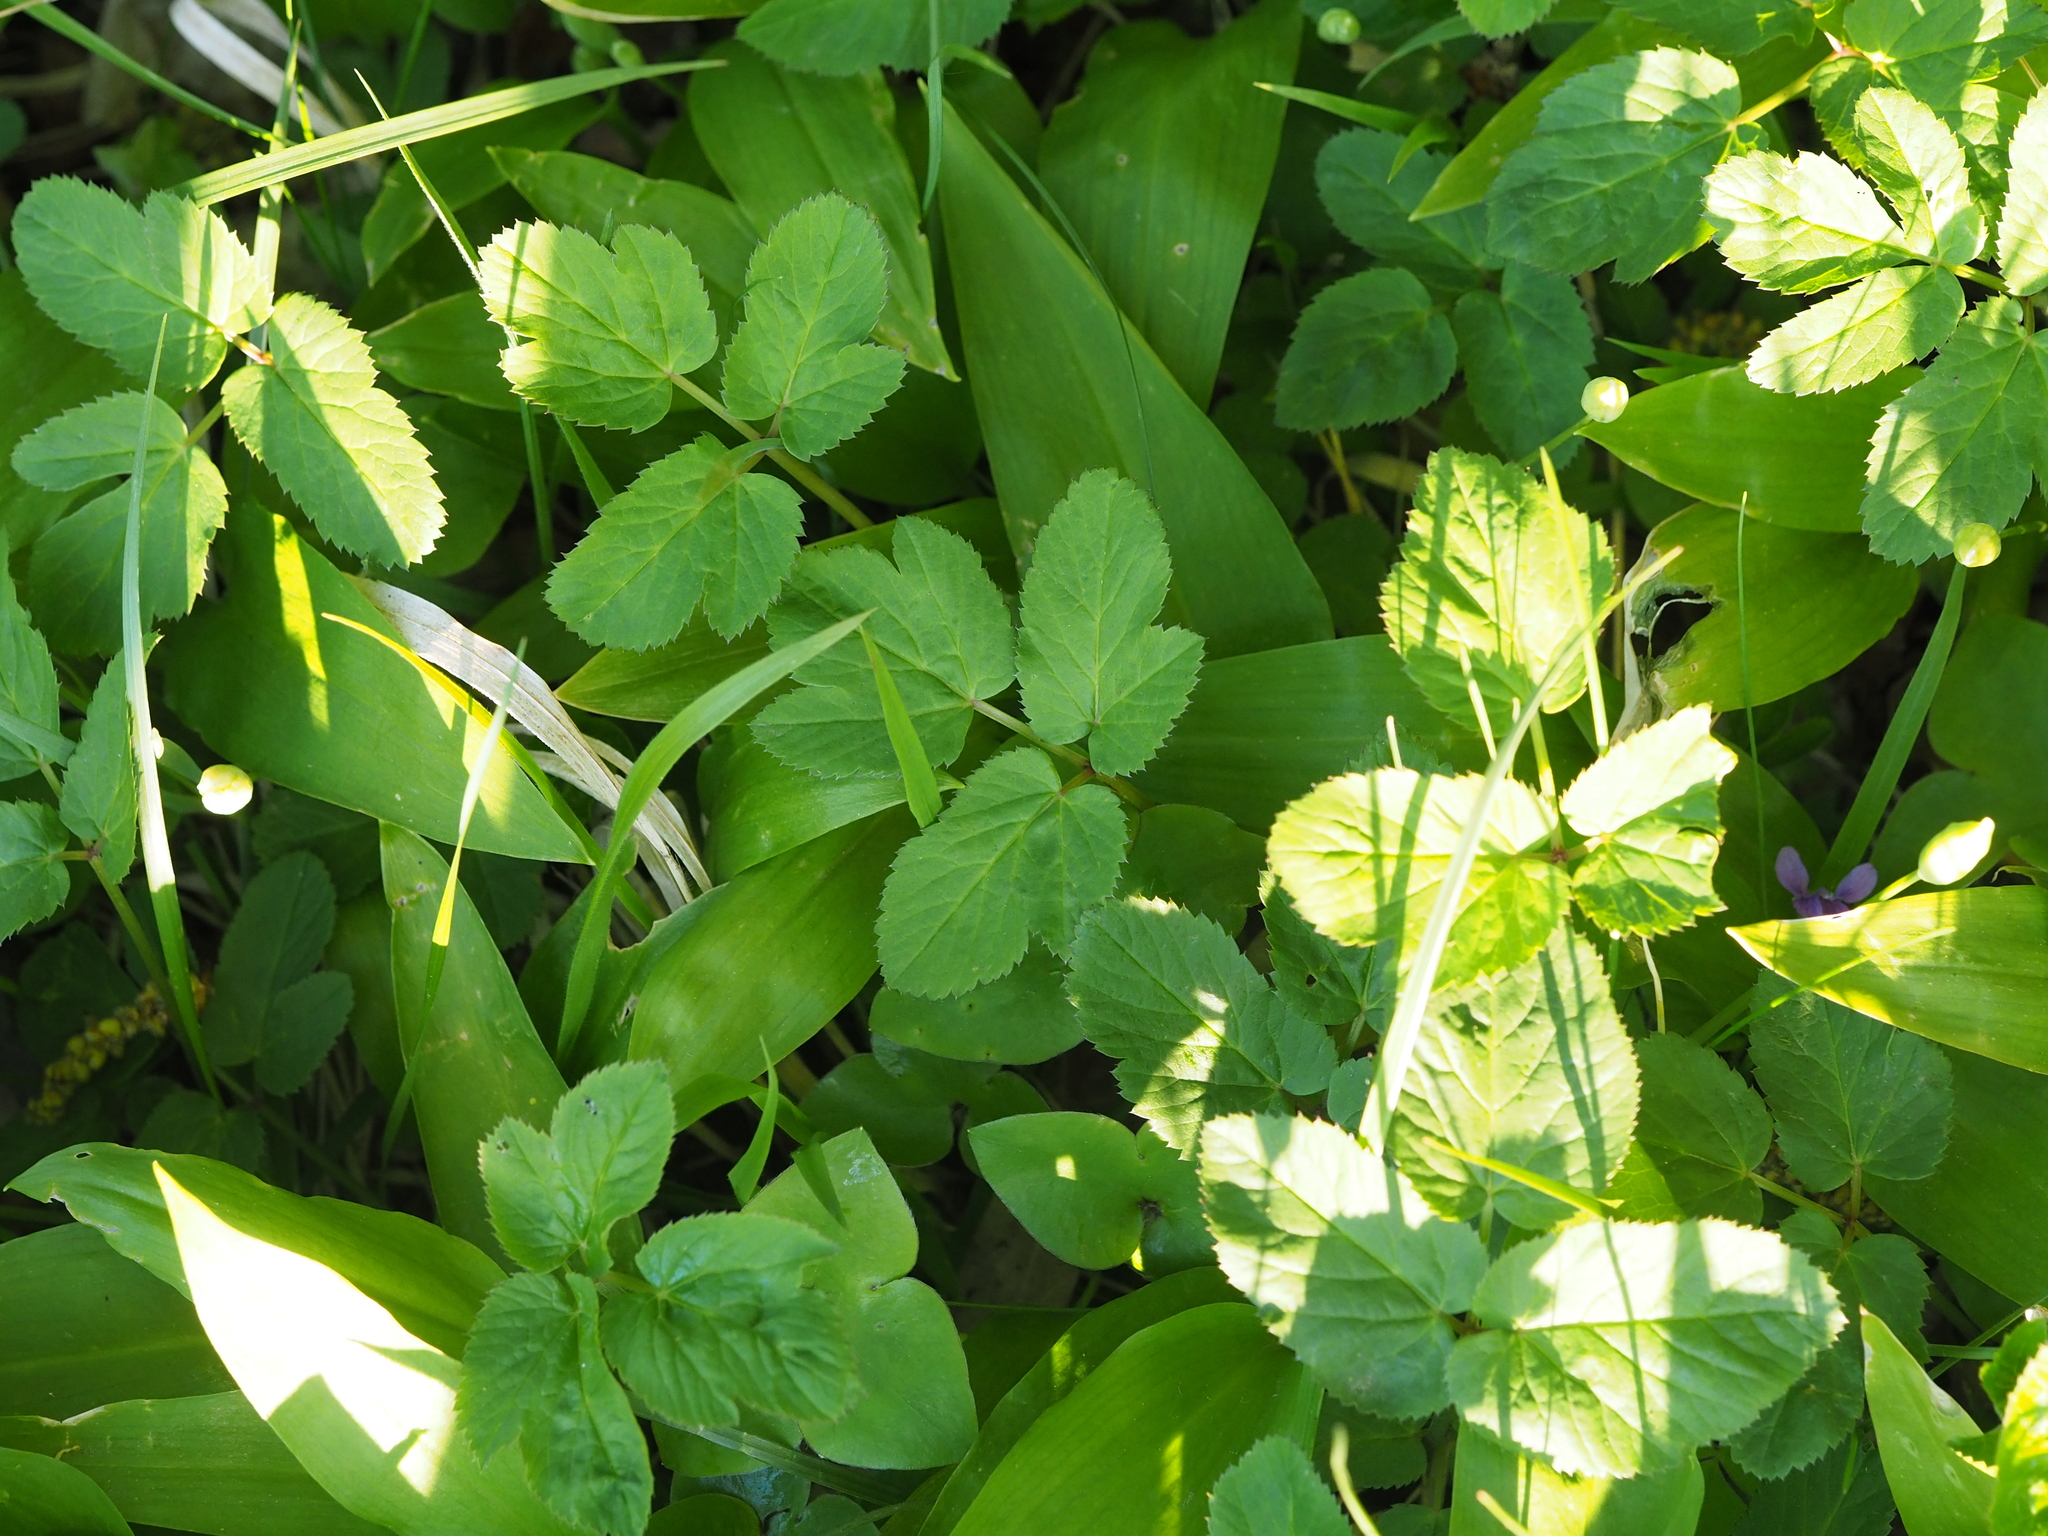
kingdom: Plantae
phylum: Tracheophyta
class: Magnoliopsida
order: Apiales
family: Apiaceae
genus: Aegopodium
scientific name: Aegopodium podagraria
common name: Ground-elder
